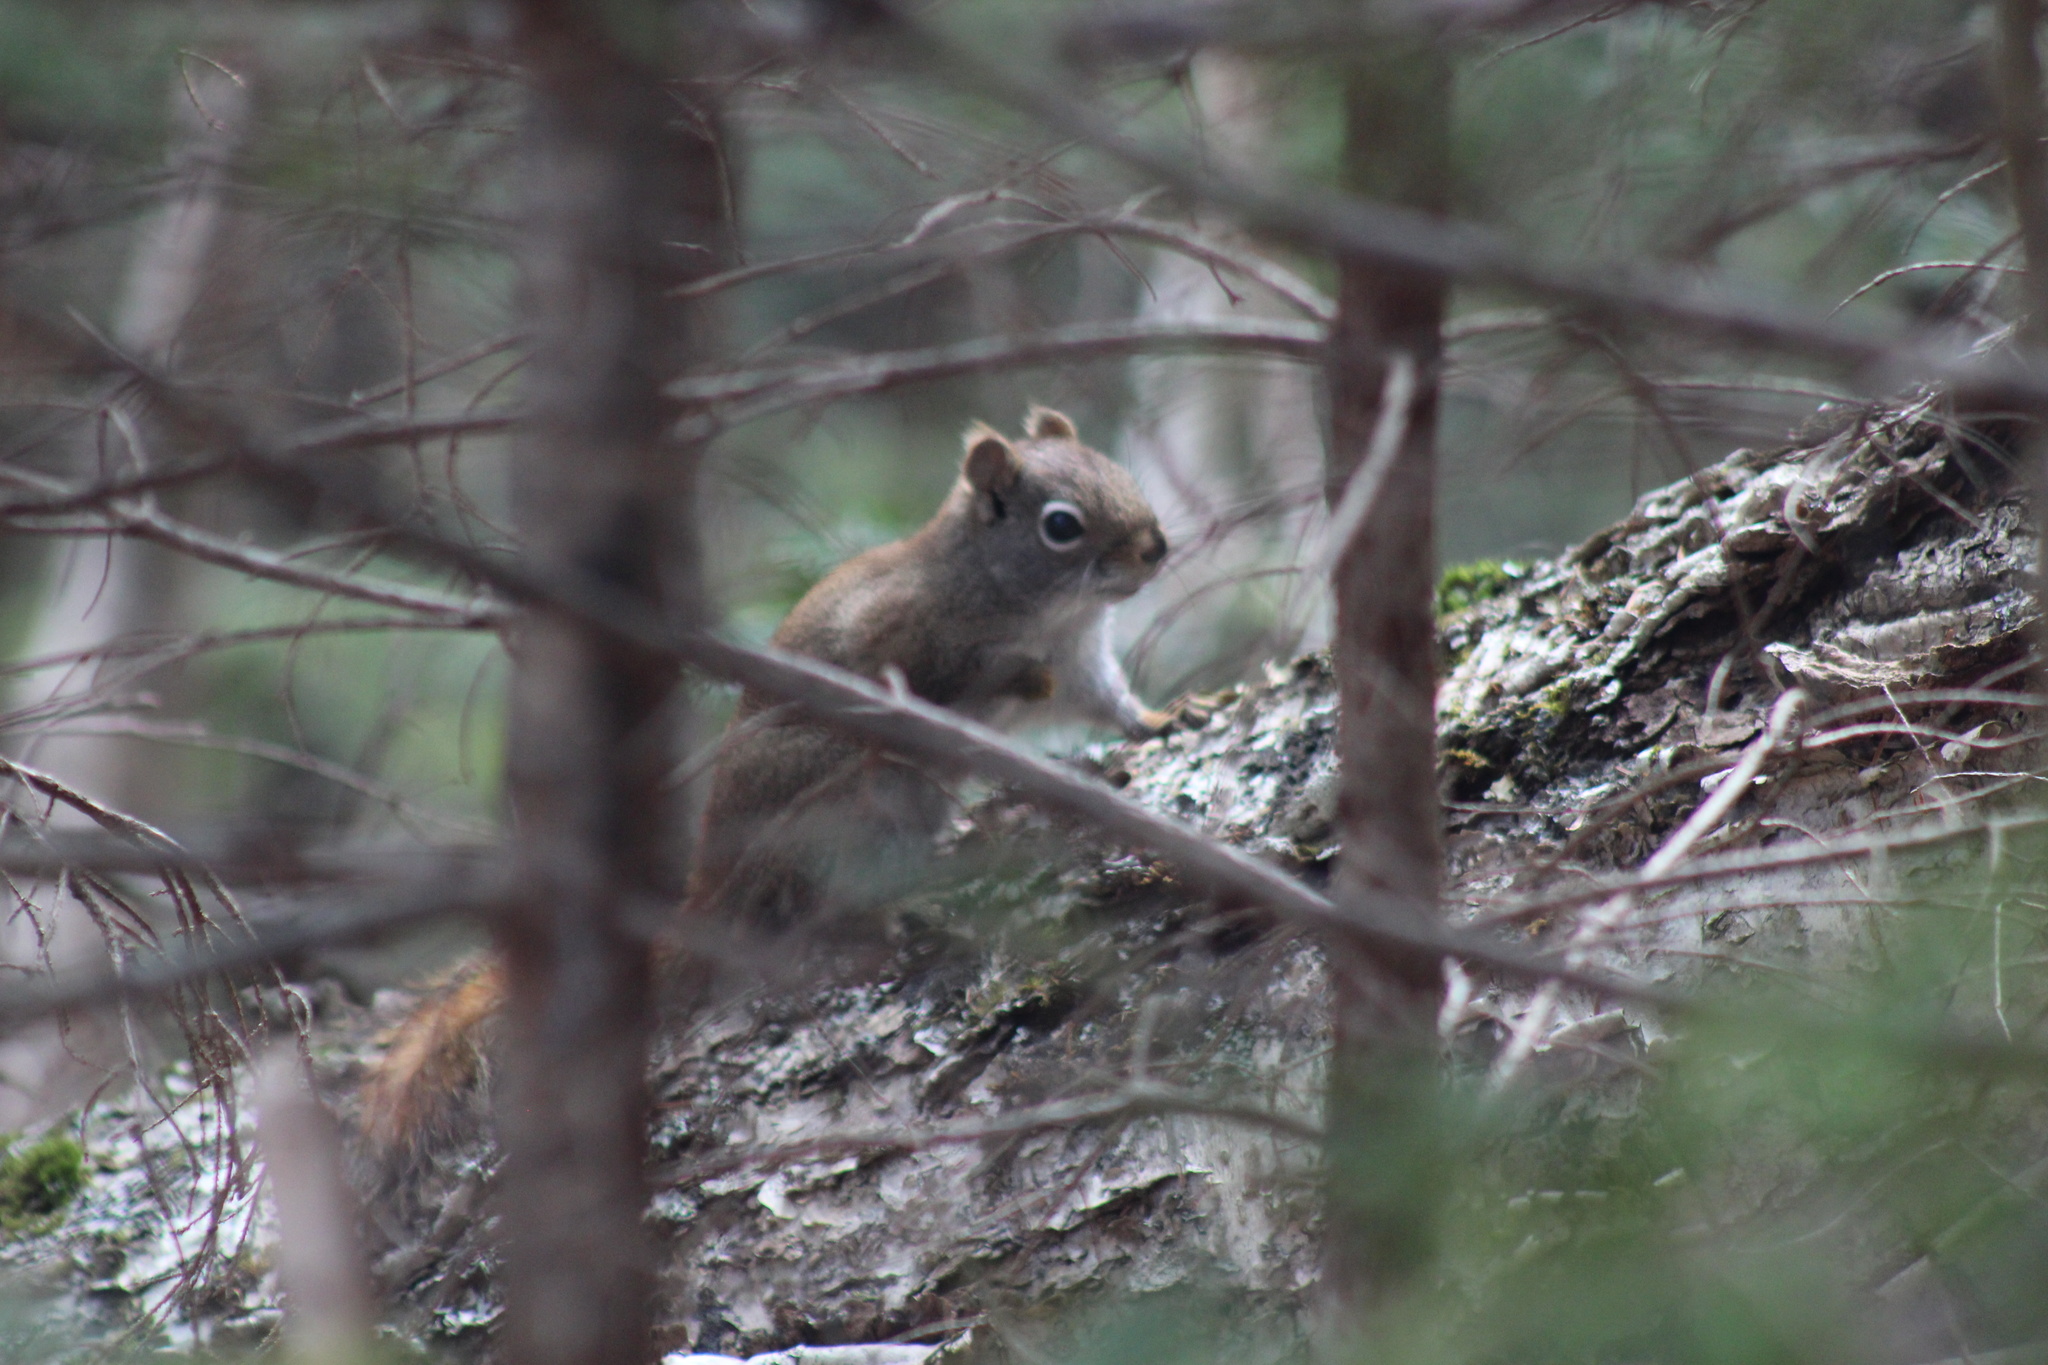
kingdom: Animalia
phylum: Chordata
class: Mammalia
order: Rodentia
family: Sciuridae
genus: Tamiasciurus
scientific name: Tamiasciurus hudsonicus
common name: Red squirrel
